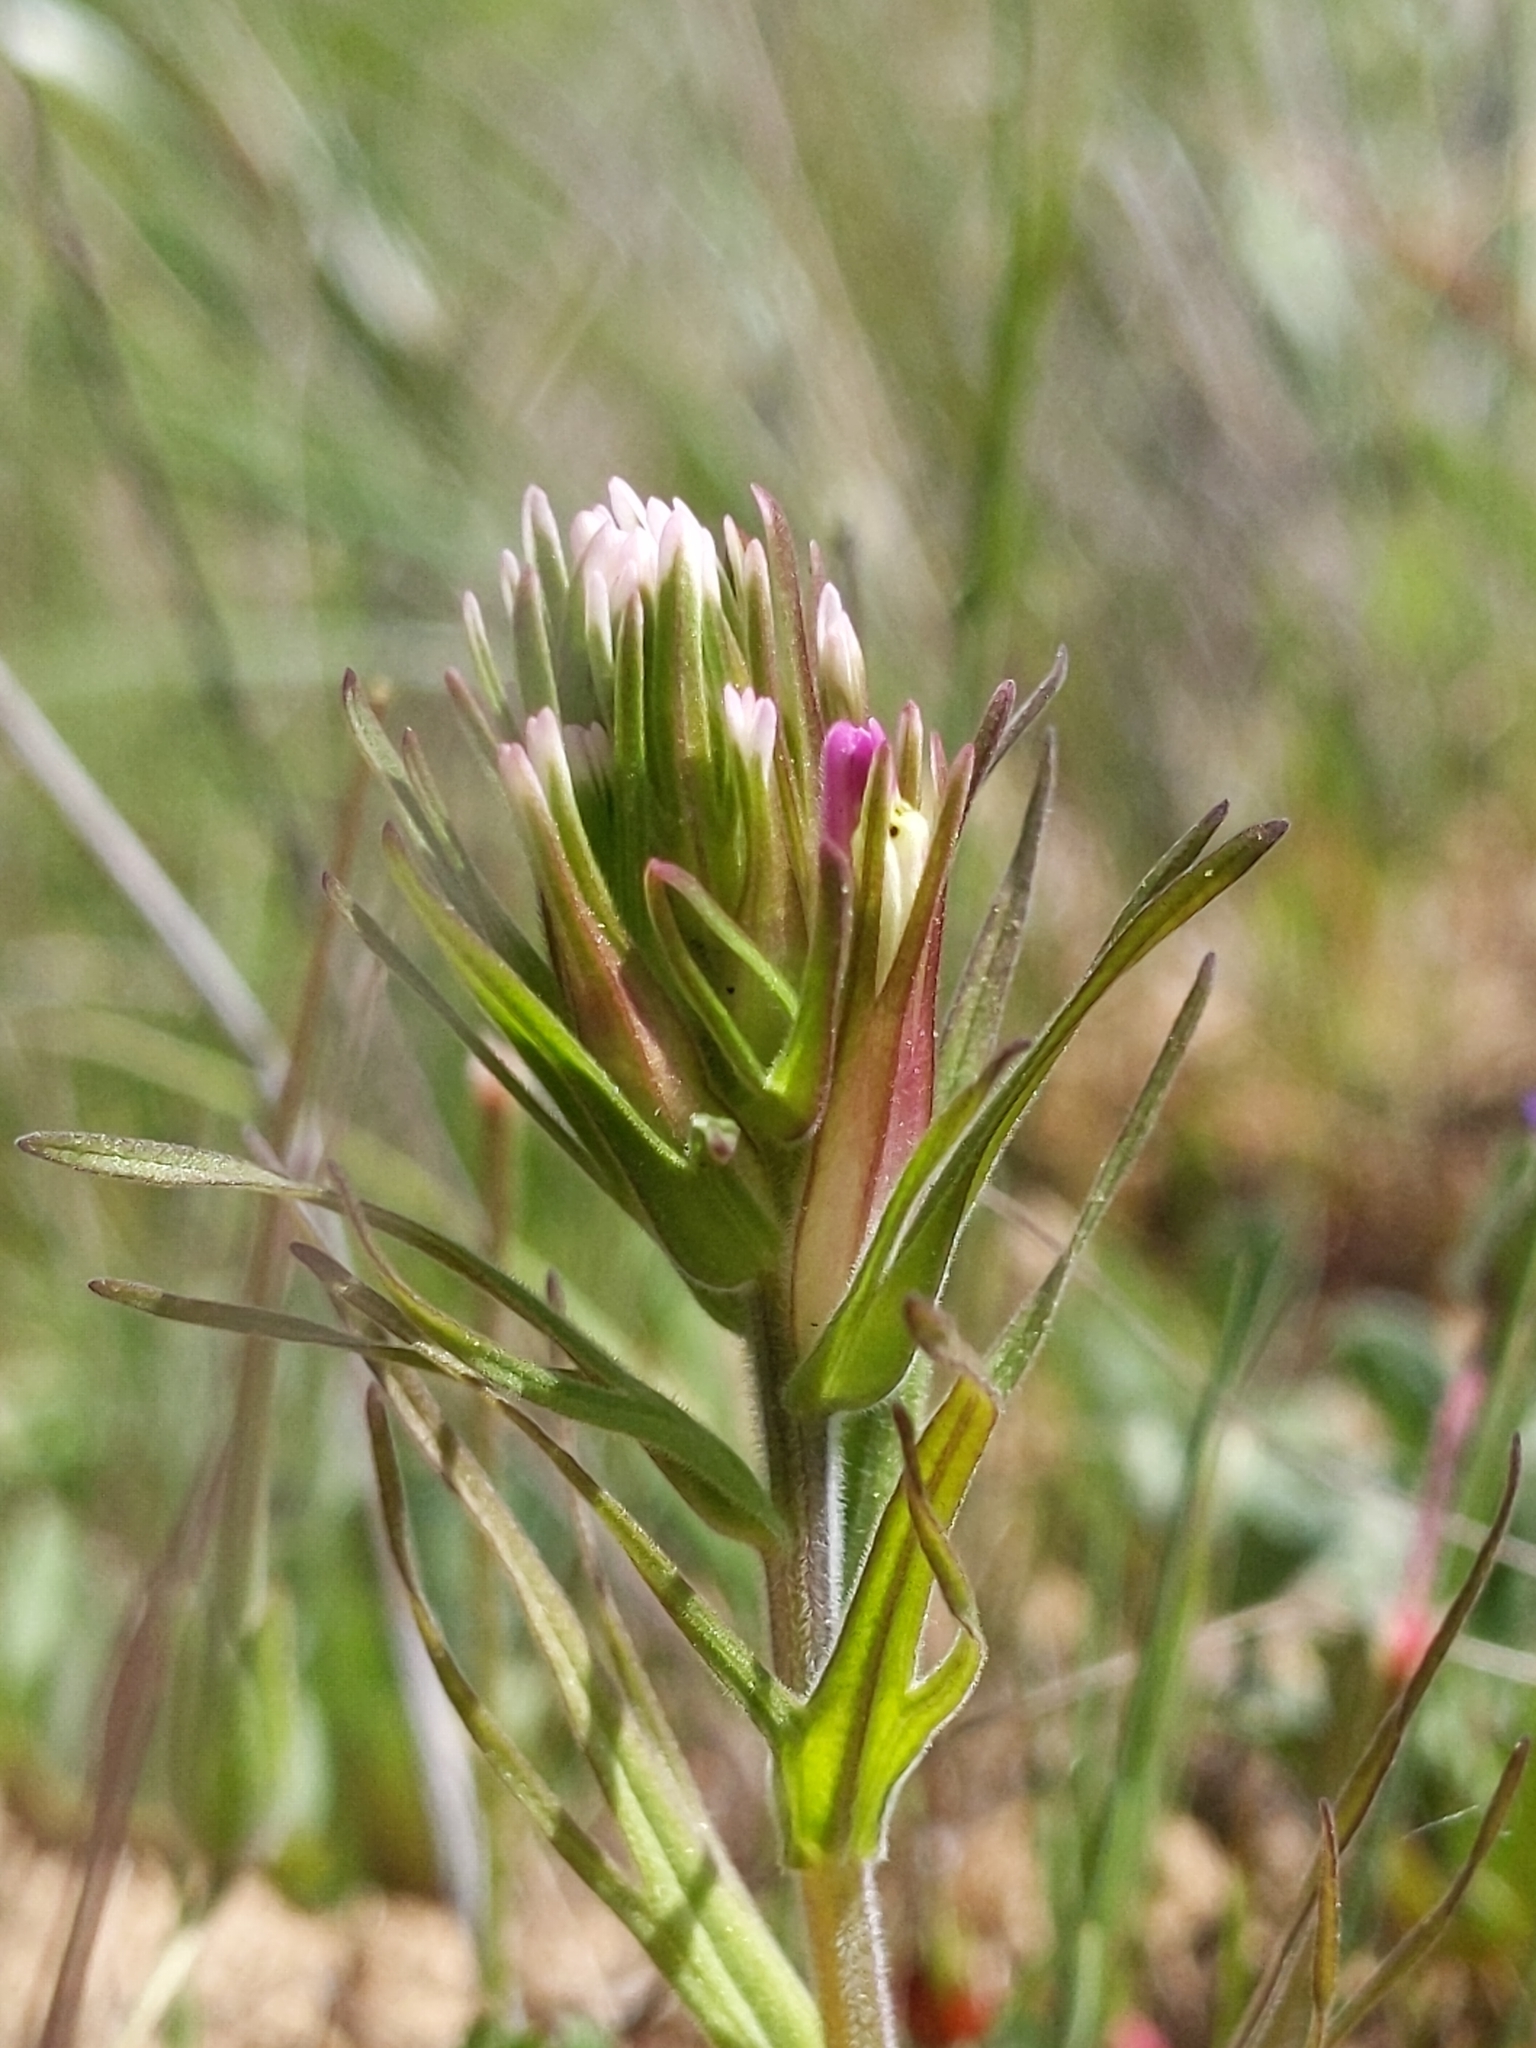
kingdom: Plantae
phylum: Tracheophyta
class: Magnoliopsida
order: Lamiales
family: Orobanchaceae
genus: Castilleja
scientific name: Castilleja densiflora
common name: Dense-flower indian paintbrush
